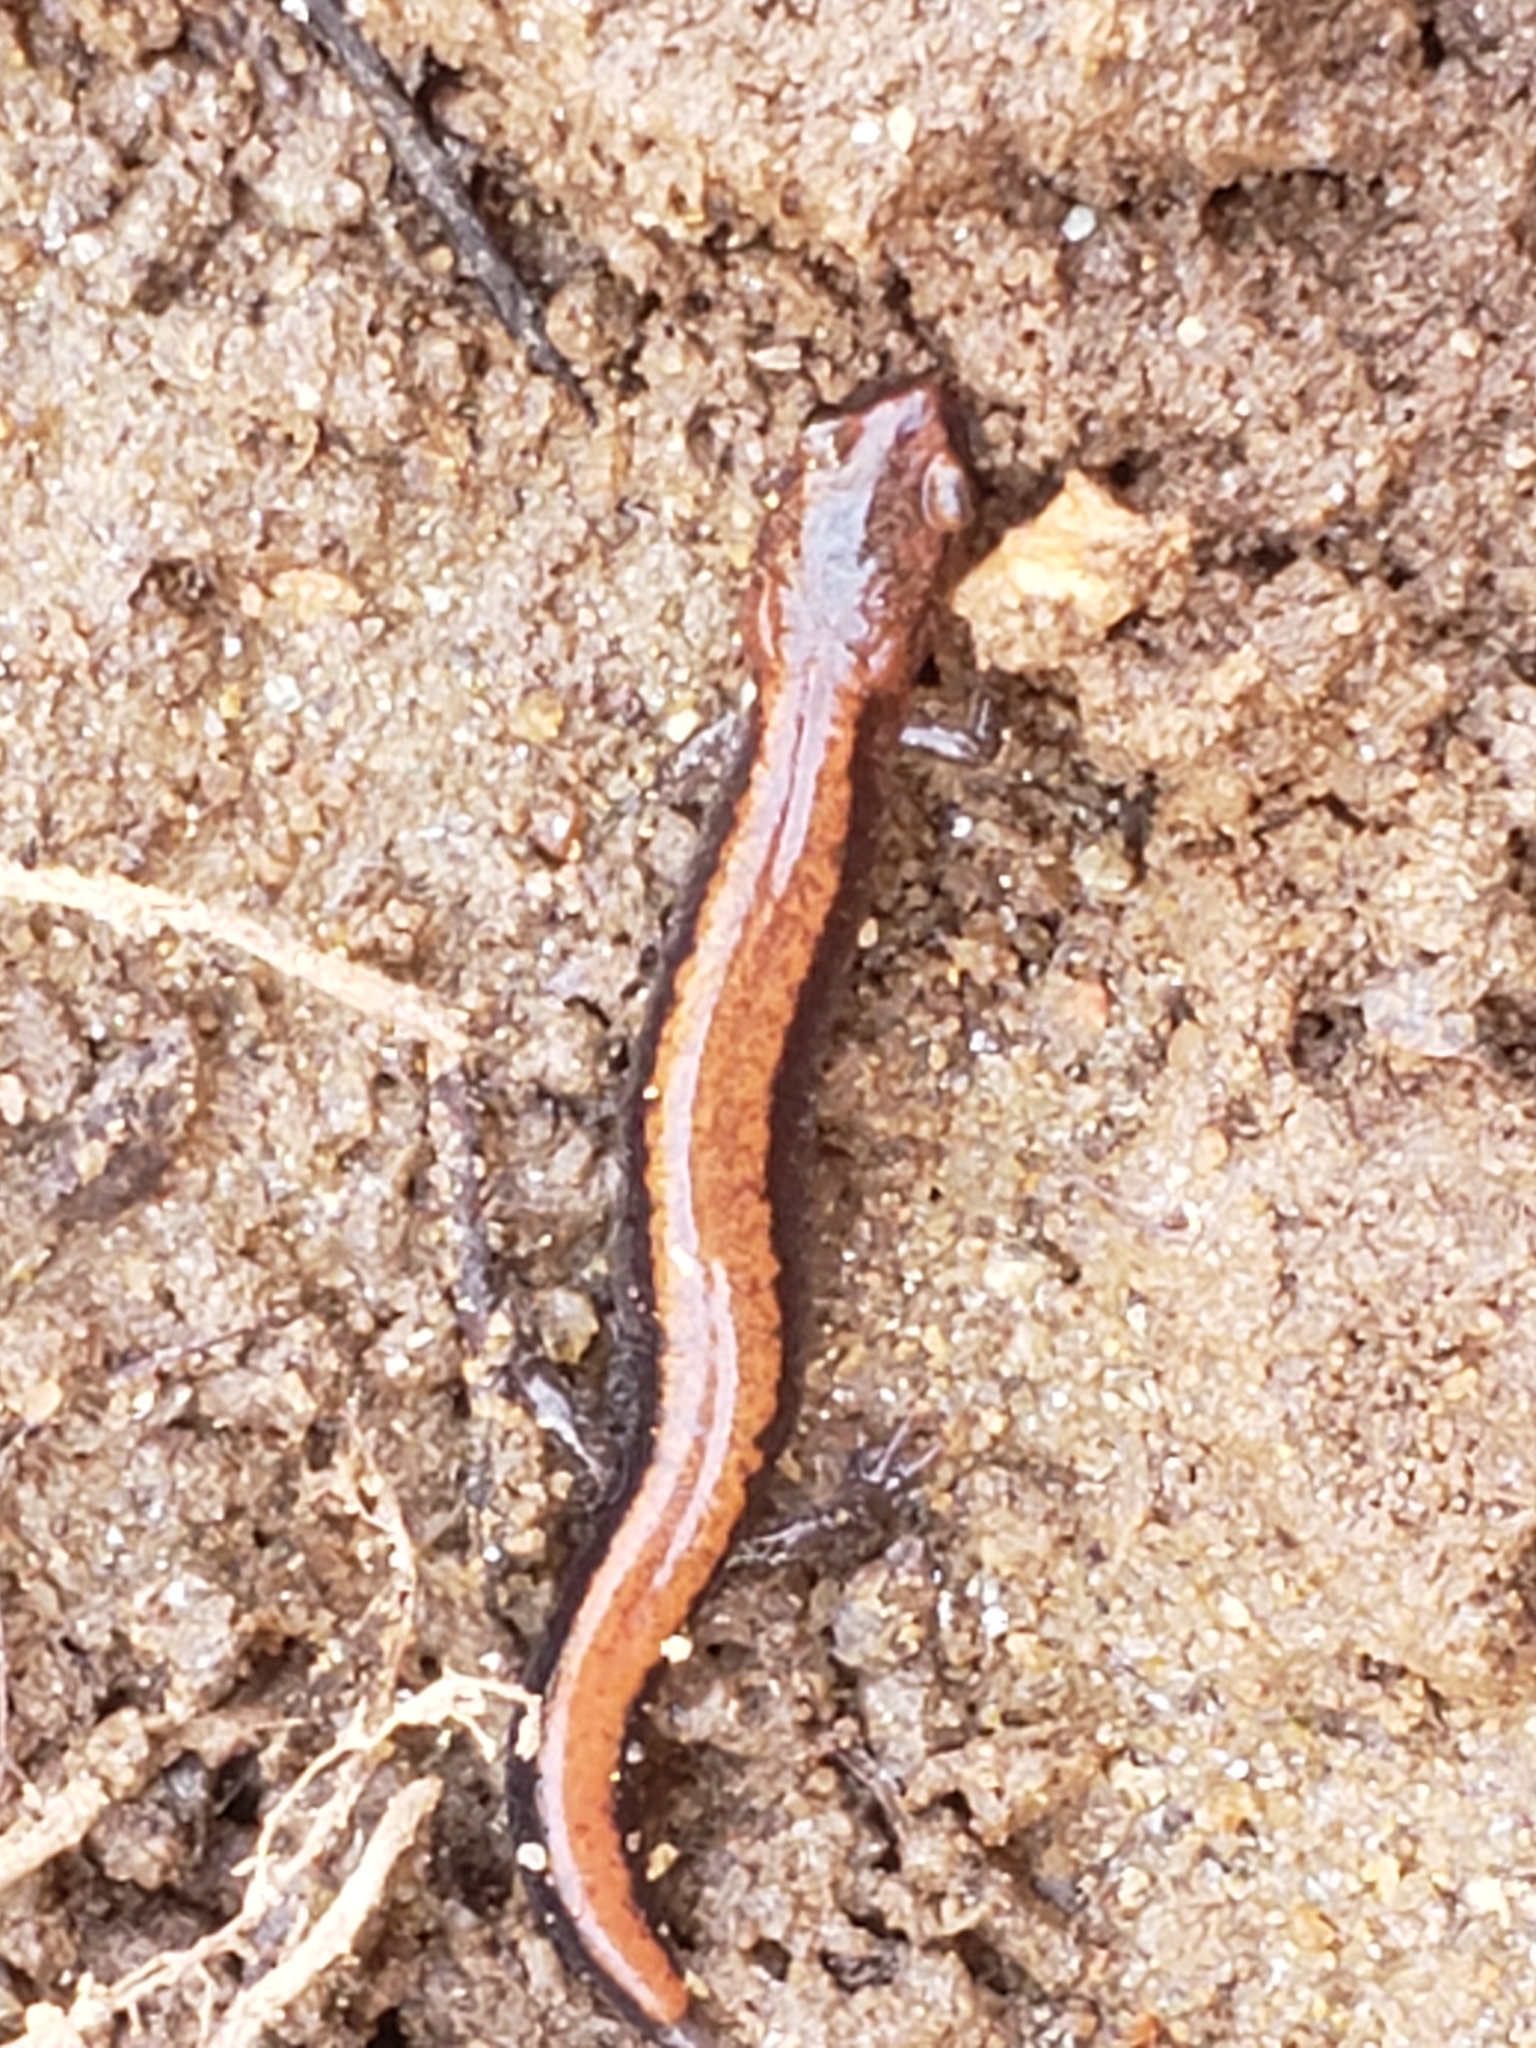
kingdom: Animalia
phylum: Chordata
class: Amphibia
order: Caudata
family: Plethodontidae
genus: Plethodon
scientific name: Plethodon cinereus
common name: Redback salamander
